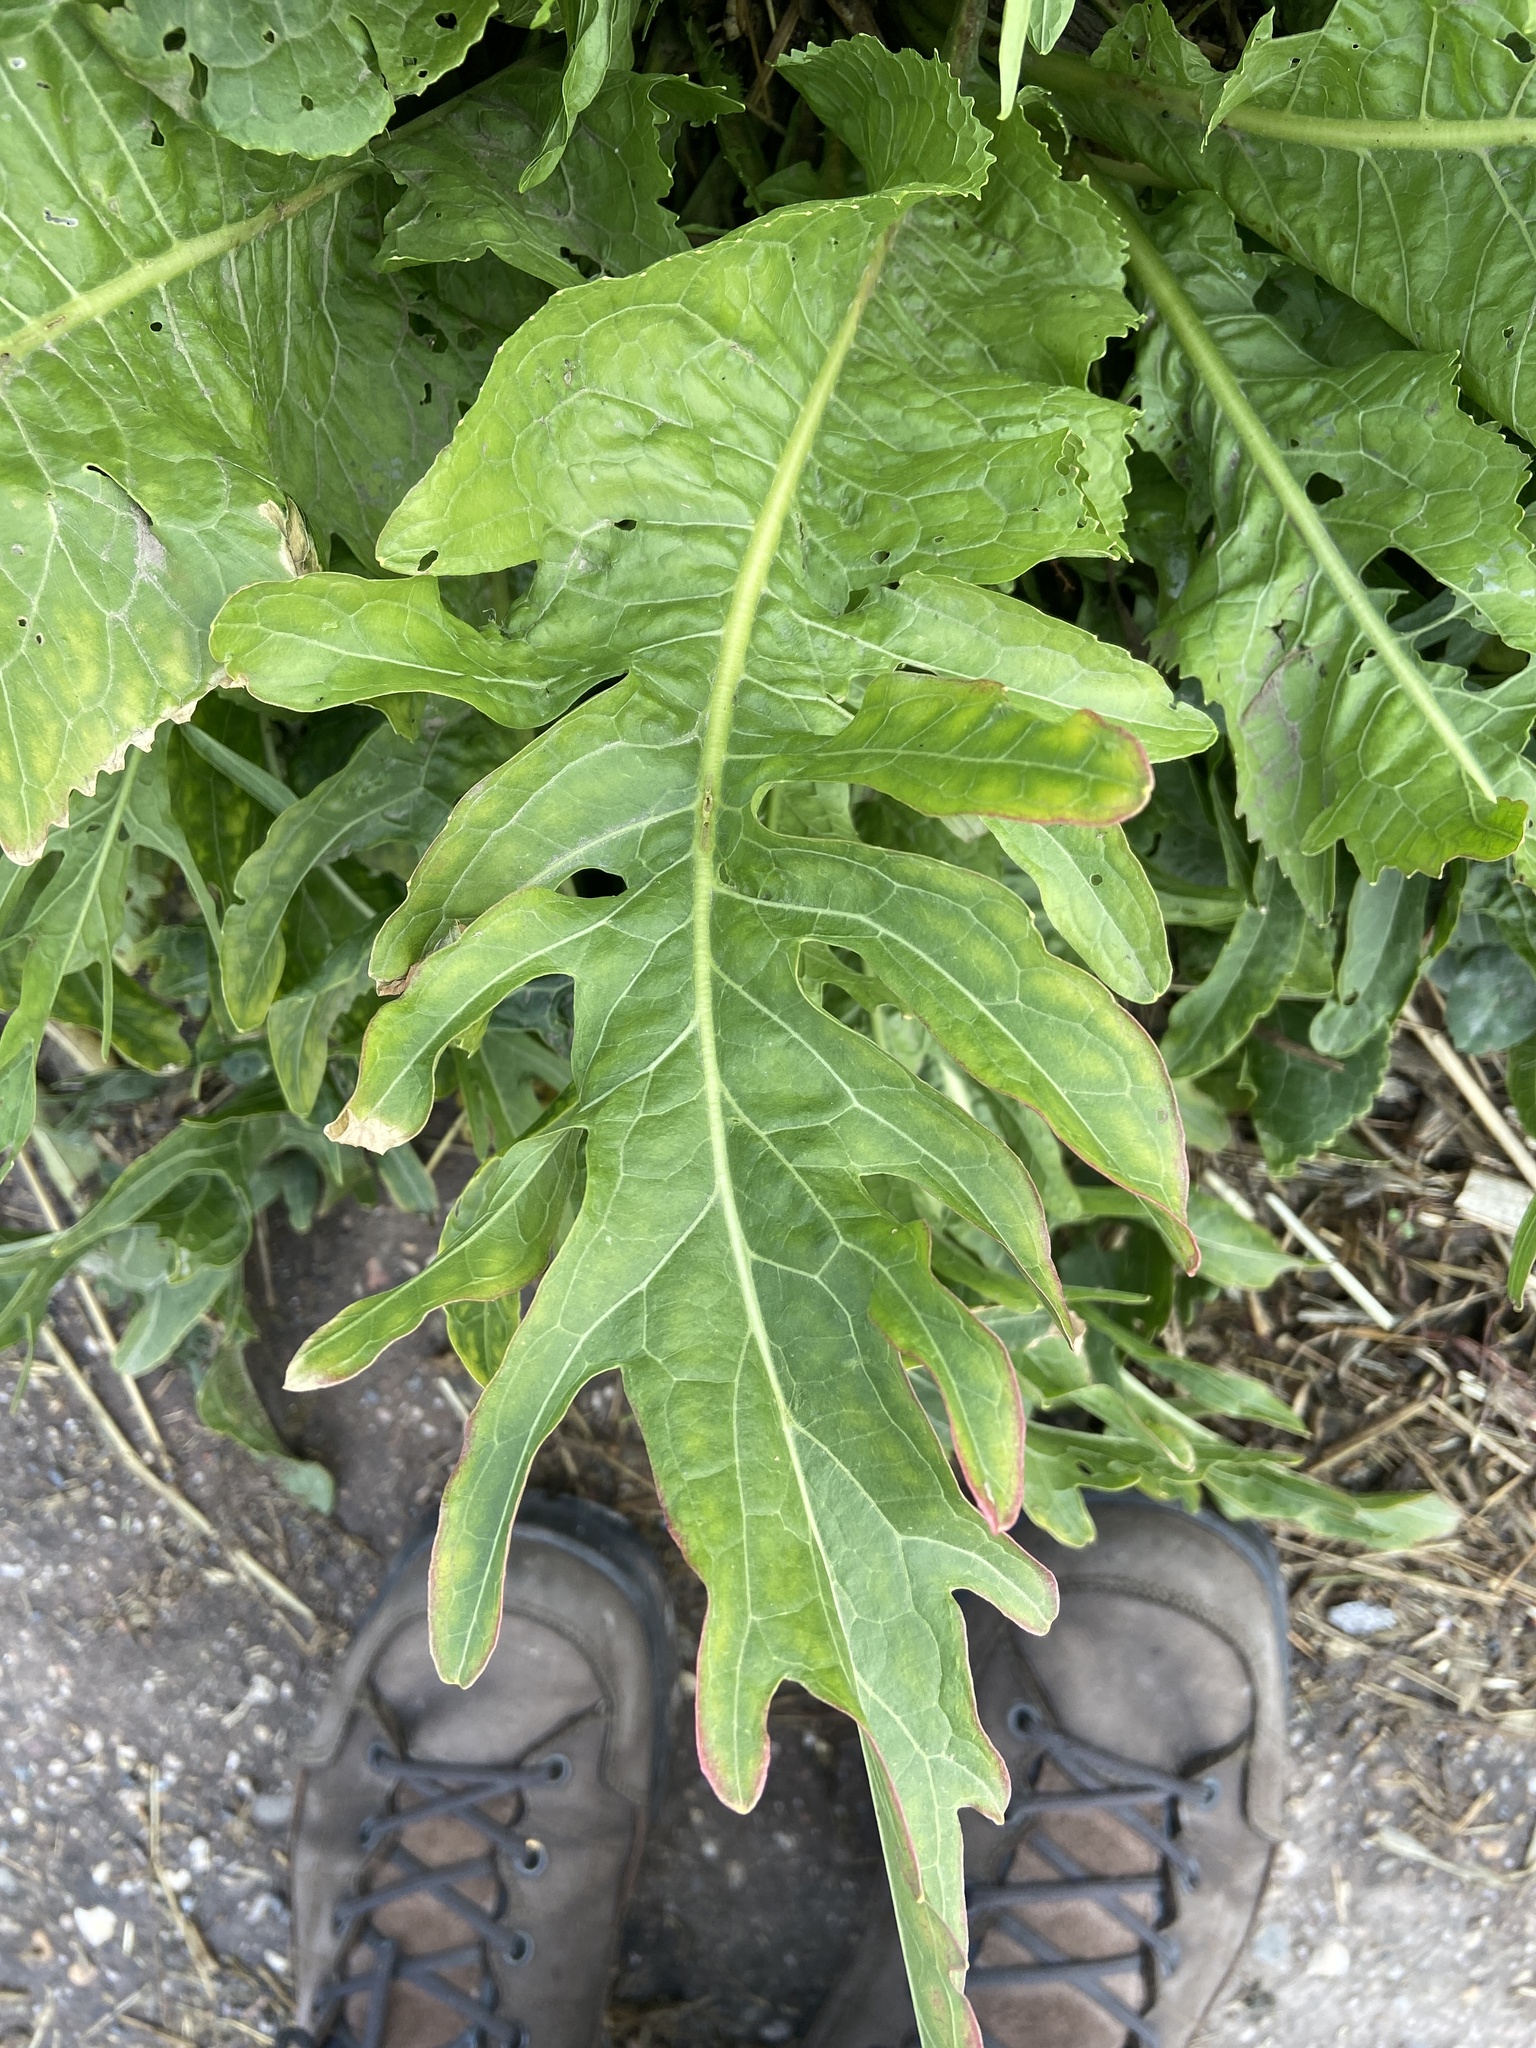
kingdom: Plantae
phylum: Tracheophyta
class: Magnoliopsida
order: Brassicales
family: Brassicaceae
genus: Armoracia
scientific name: Armoracia rusticana
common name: Horseradish
